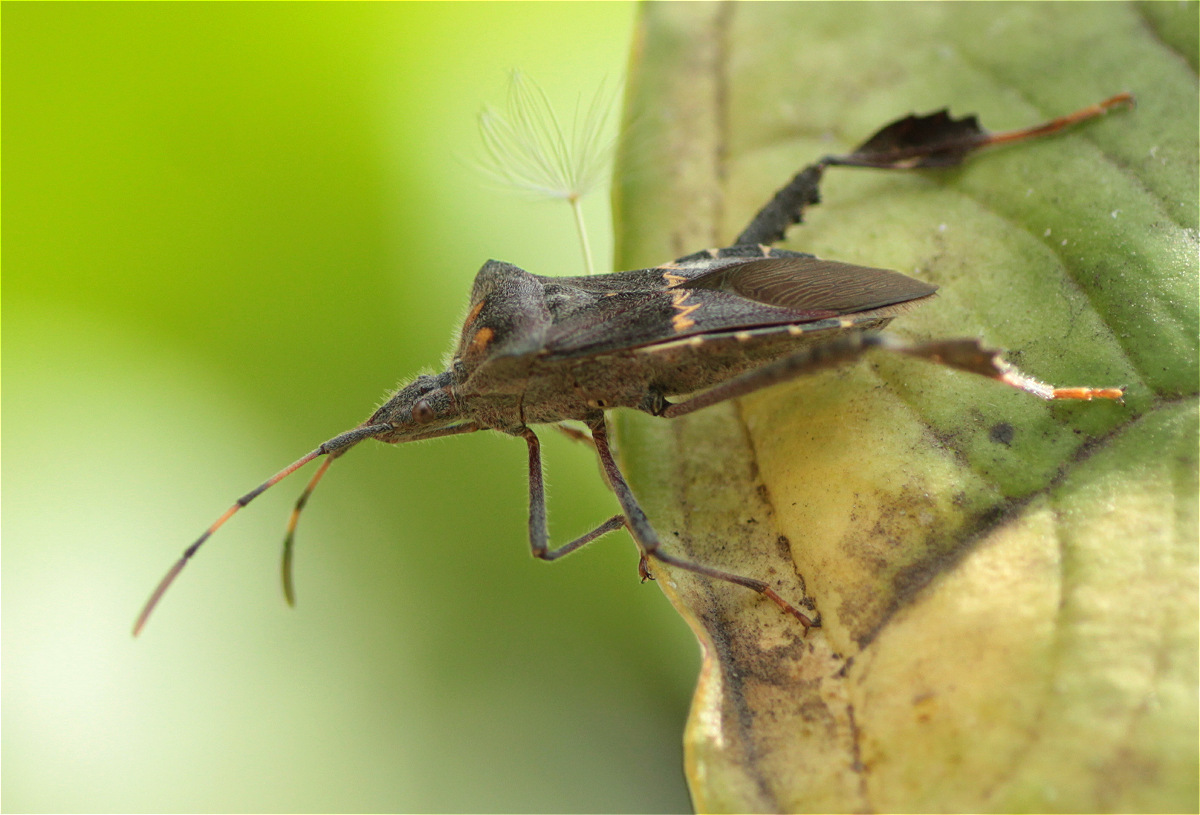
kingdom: Animalia
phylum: Arthropoda
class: Insecta
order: Hemiptera
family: Coreidae
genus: Leptoglossus
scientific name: Leptoglossus zonatus
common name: Large-legged bug
